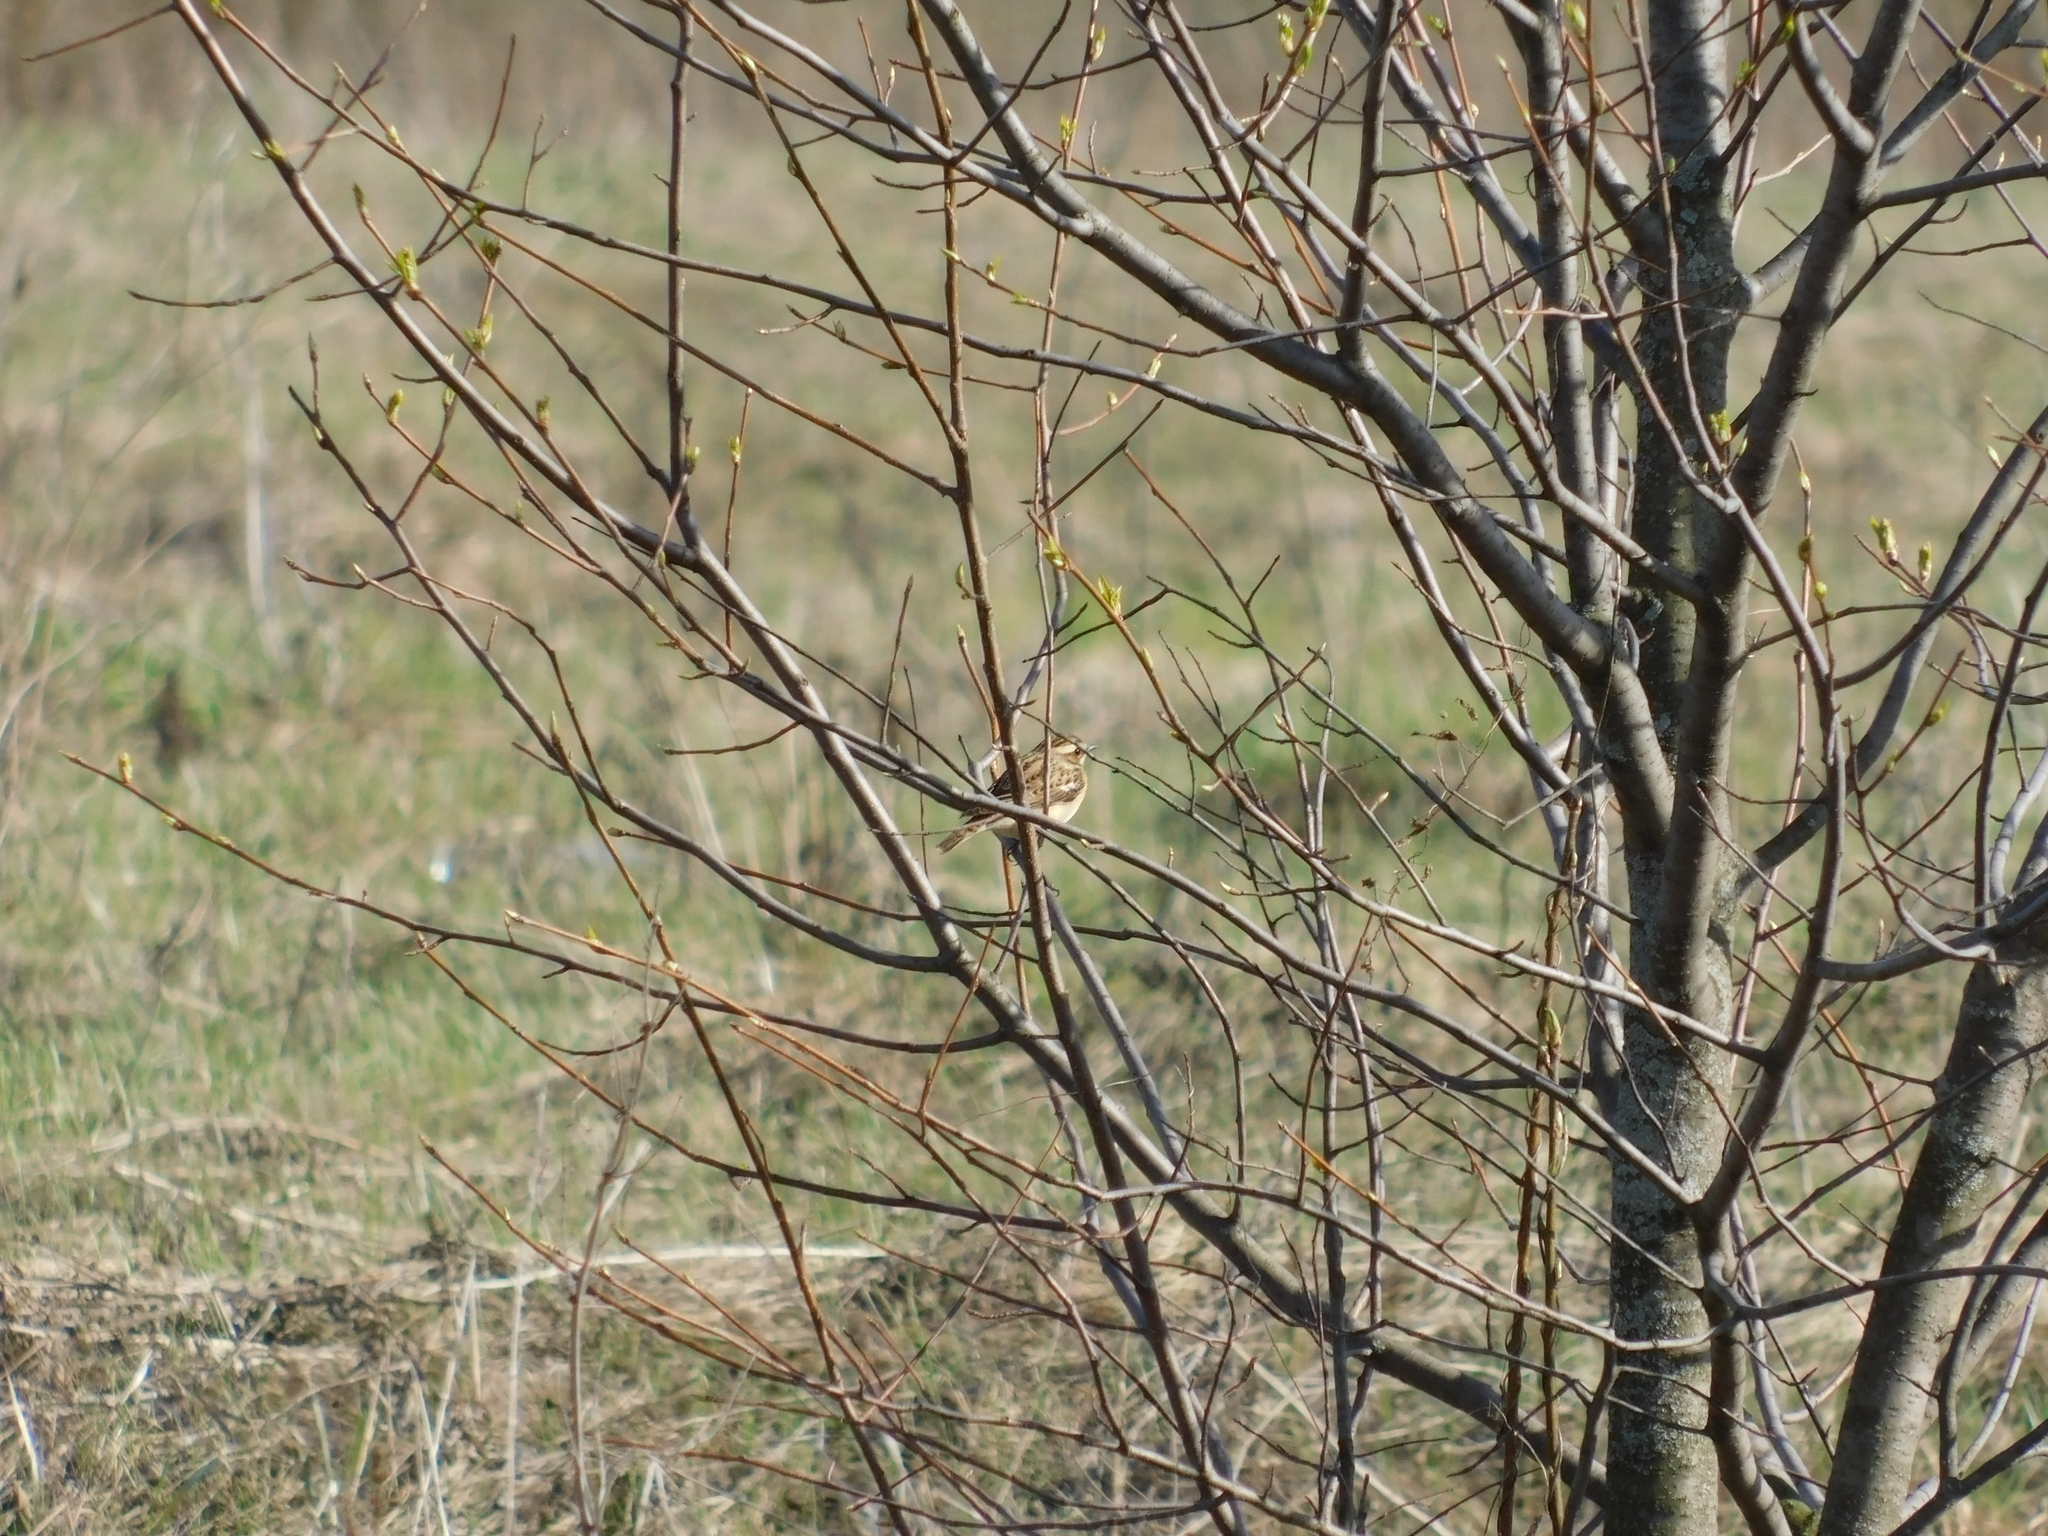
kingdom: Animalia
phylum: Chordata
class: Aves
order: Passeriformes
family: Muscicapidae
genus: Saxicola
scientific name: Saxicola rubetra
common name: Whinchat
